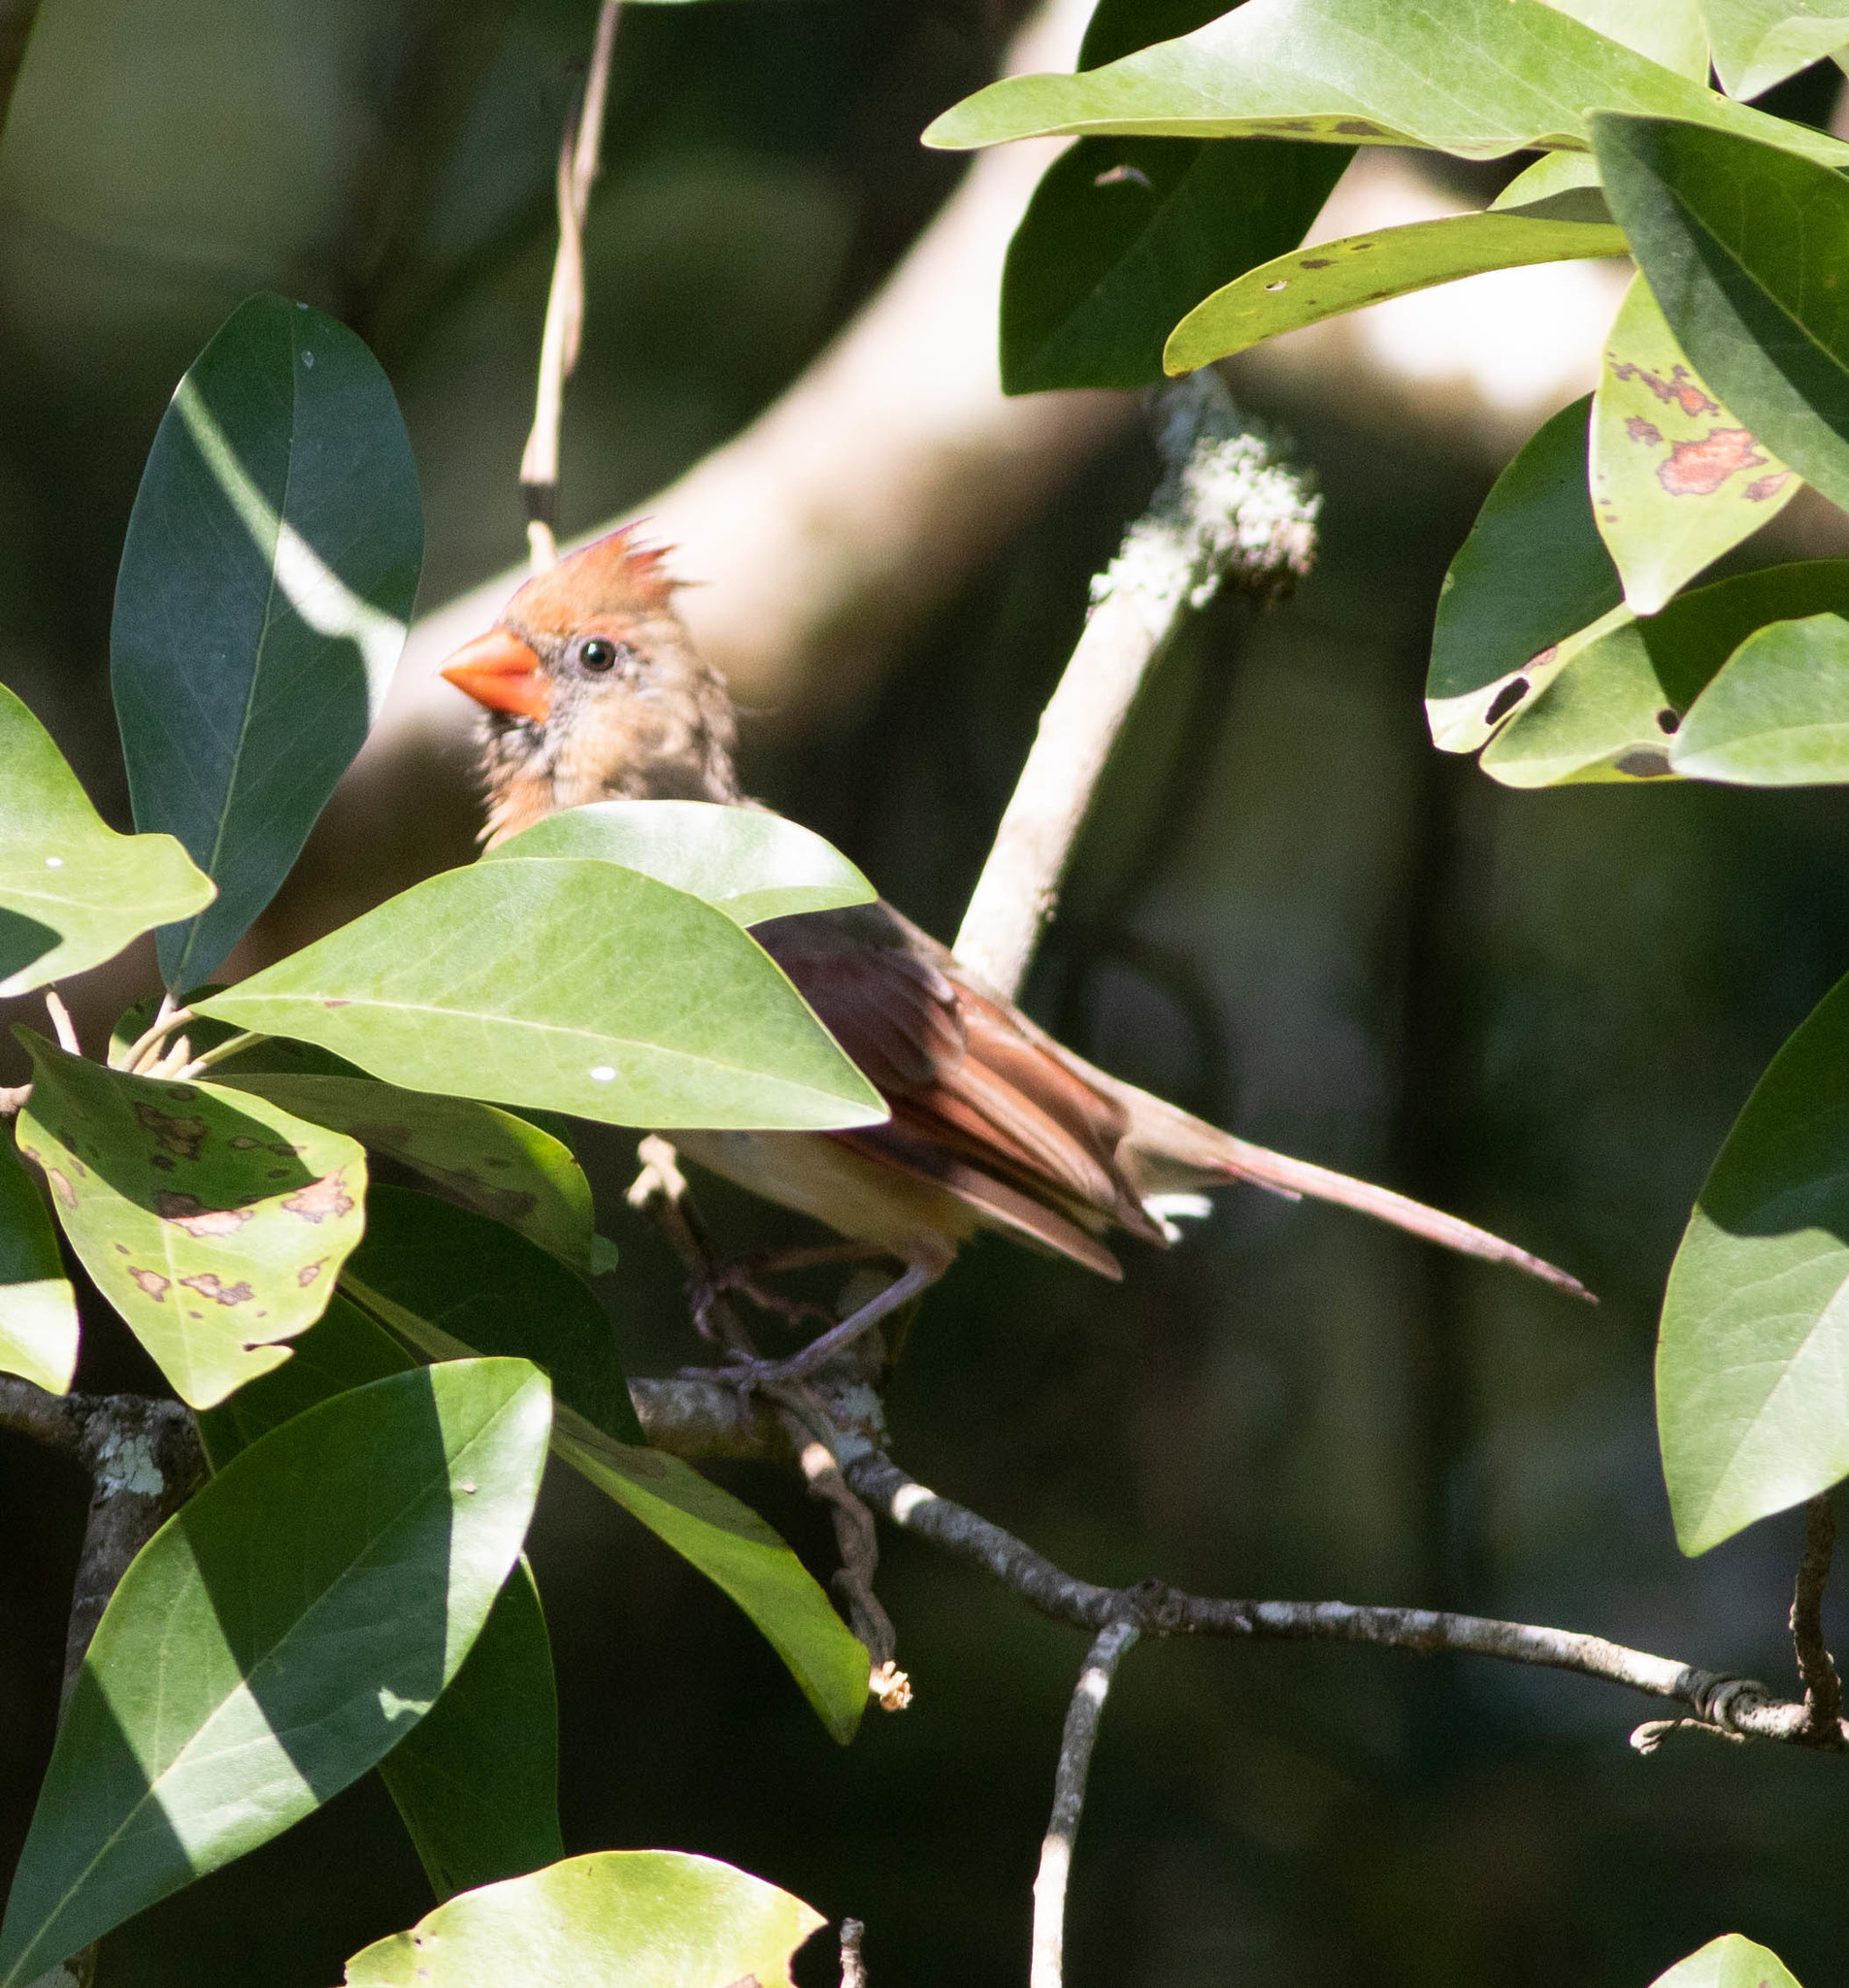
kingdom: Animalia
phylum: Chordata
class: Aves
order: Passeriformes
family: Cardinalidae
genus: Cardinalis
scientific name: Cardinalis cardinalis
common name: Northern cardinal
